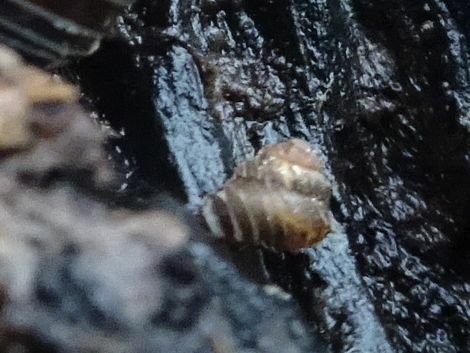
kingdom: Animalia
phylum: Mollusca
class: Gastropoda
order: Stylommatophora
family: Valloniidae
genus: Acanthinula
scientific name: Acanthinula aculeata
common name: Prickly snail
